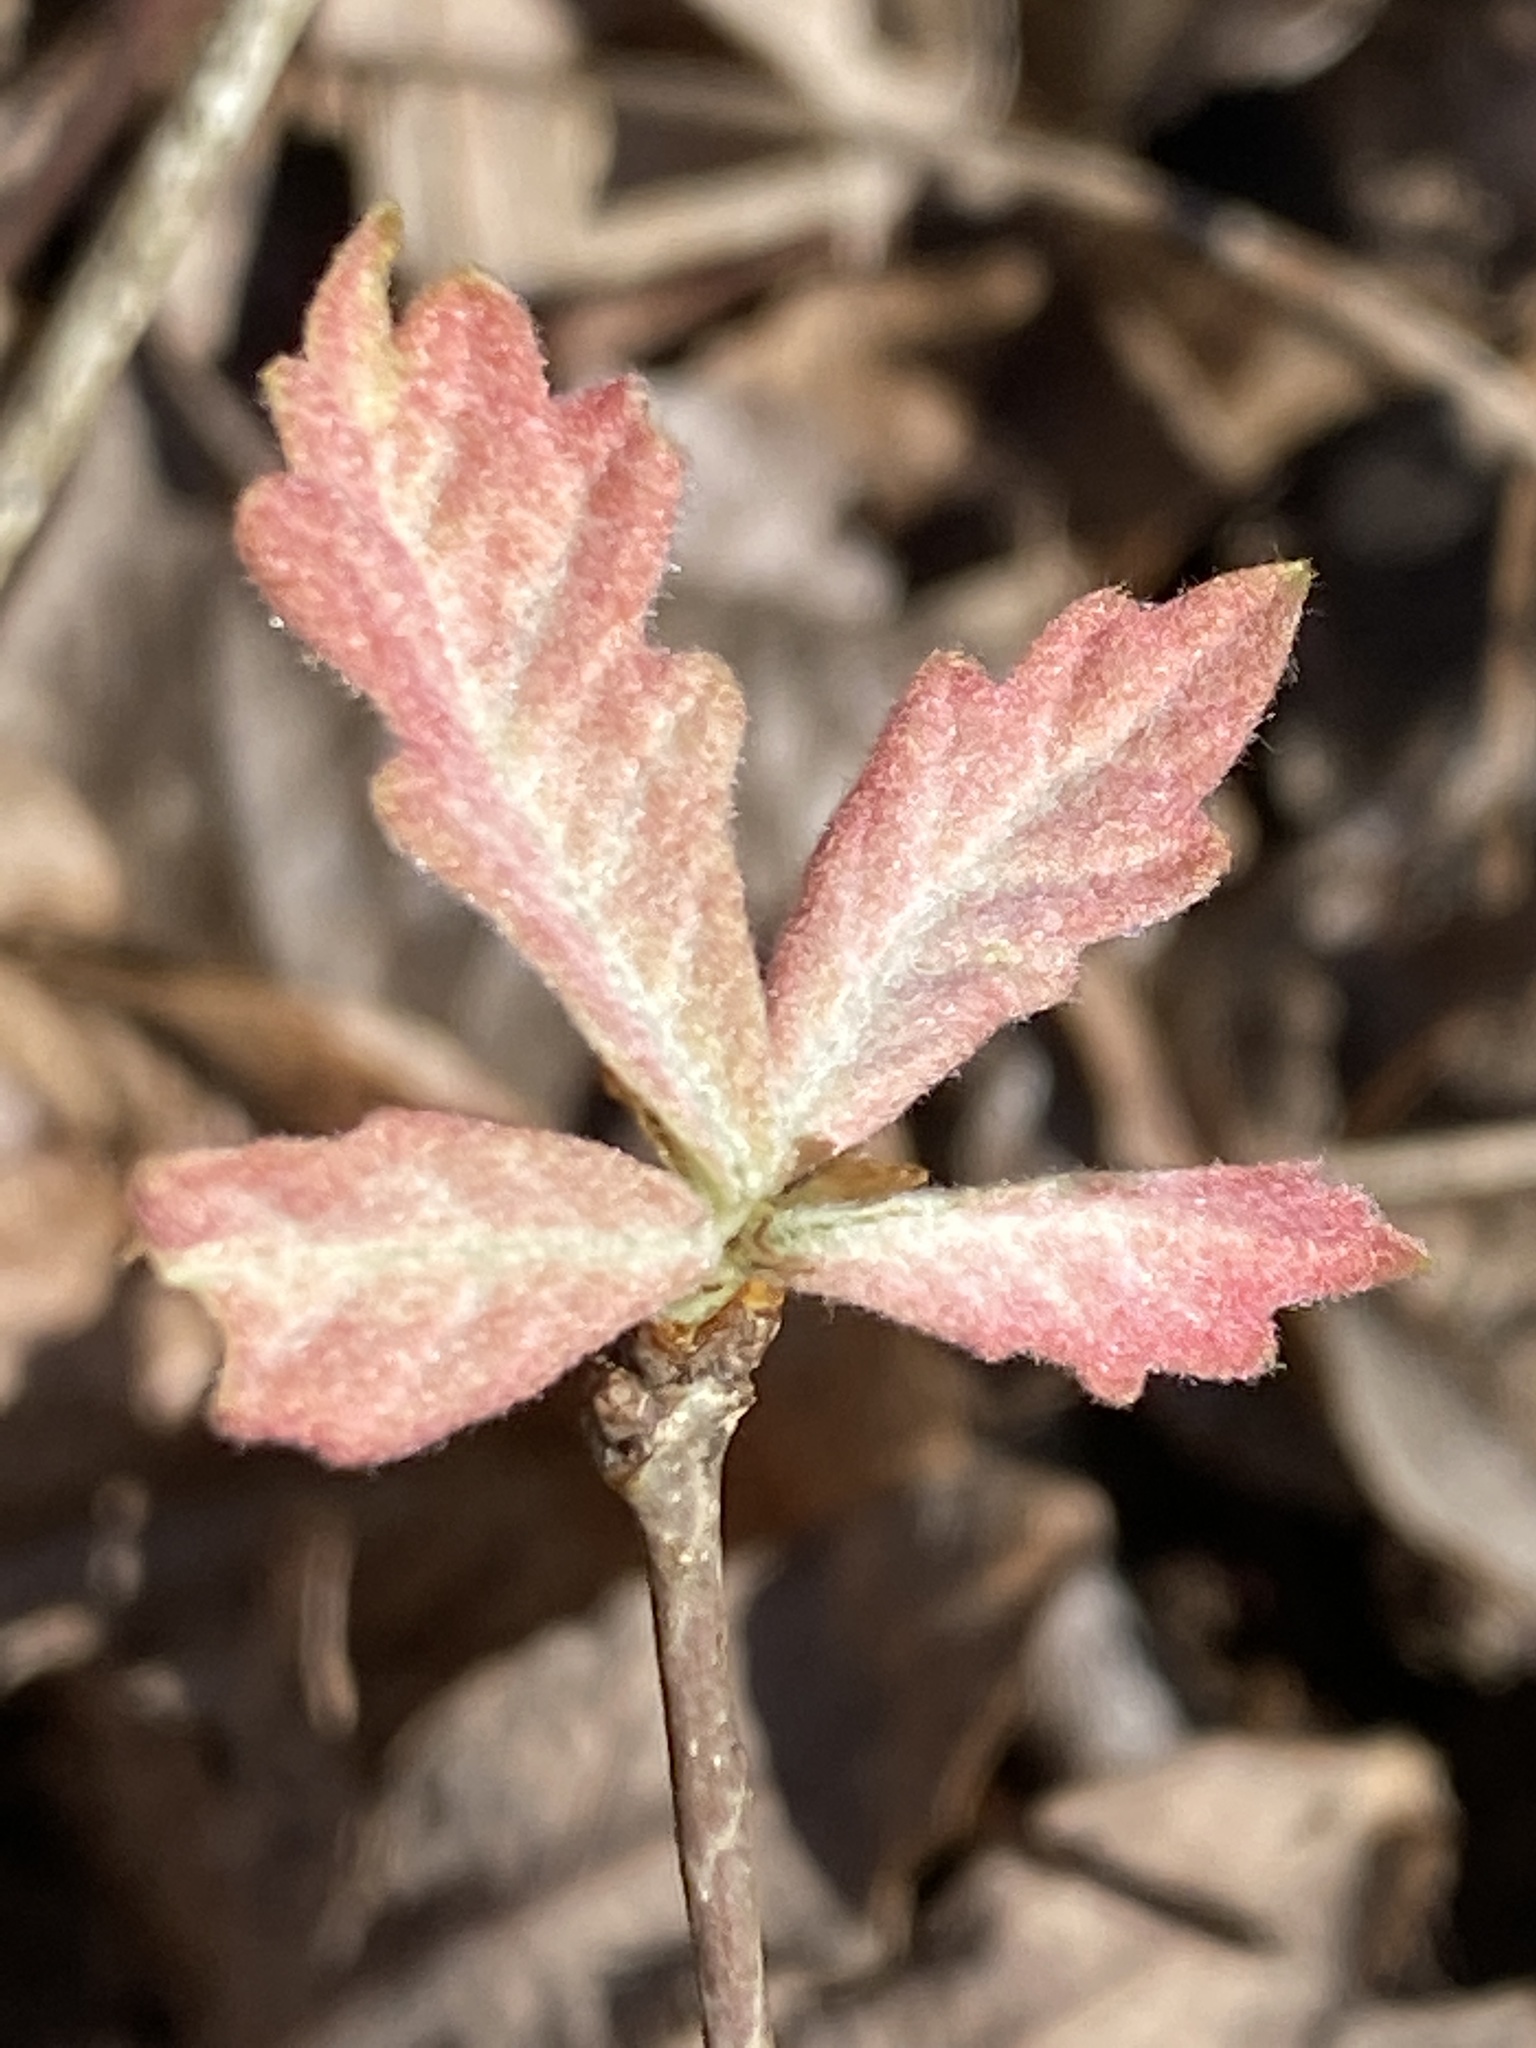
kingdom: Plantae
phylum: Tracheophyta
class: Magnoliopsida
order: Fagales
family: Fagaceae
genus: Quercus
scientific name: Quercus alba
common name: White oak
